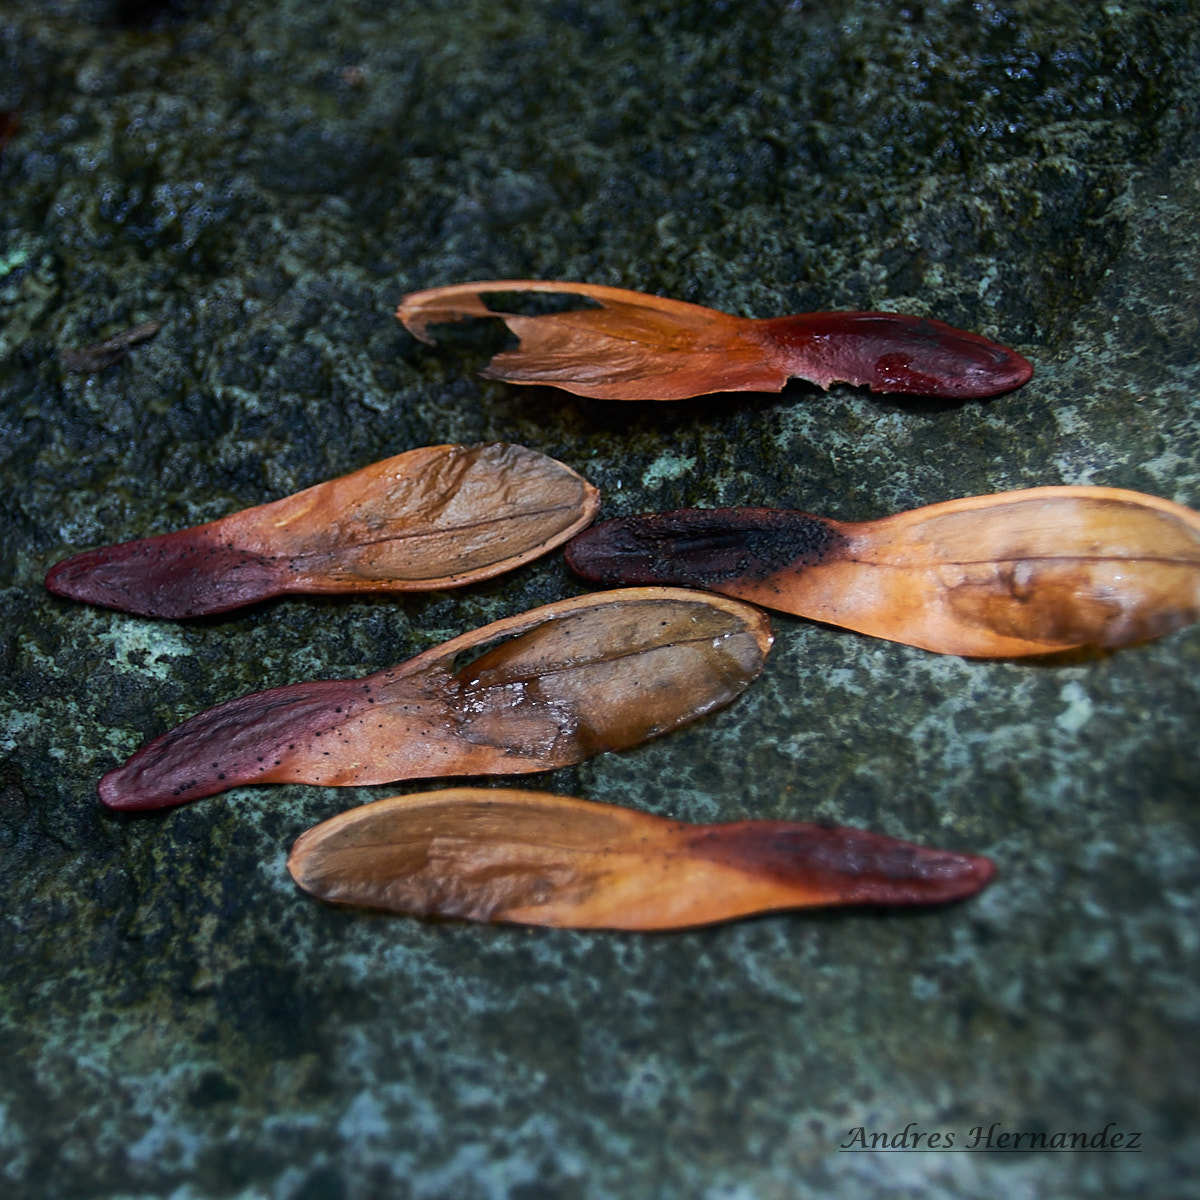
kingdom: Plantae
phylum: Tracheophyta
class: Magnoliopsida
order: Celastrales
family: Celastraceae
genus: Hippocratea
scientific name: Hippocratea volubilis
